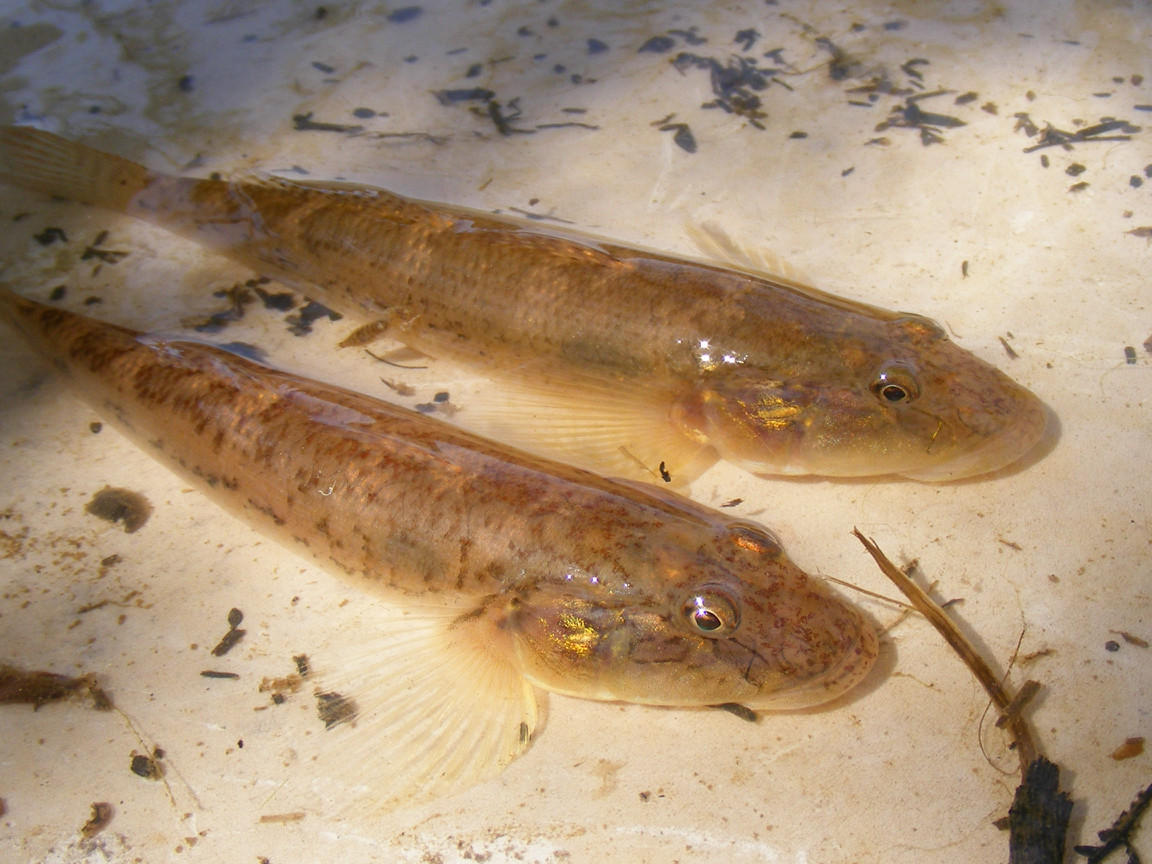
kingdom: Animalia
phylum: Chordata
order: Perciformes
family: Gobiidae
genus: Awaous
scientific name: Awaous aeneofuscus
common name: Freshwater goby
